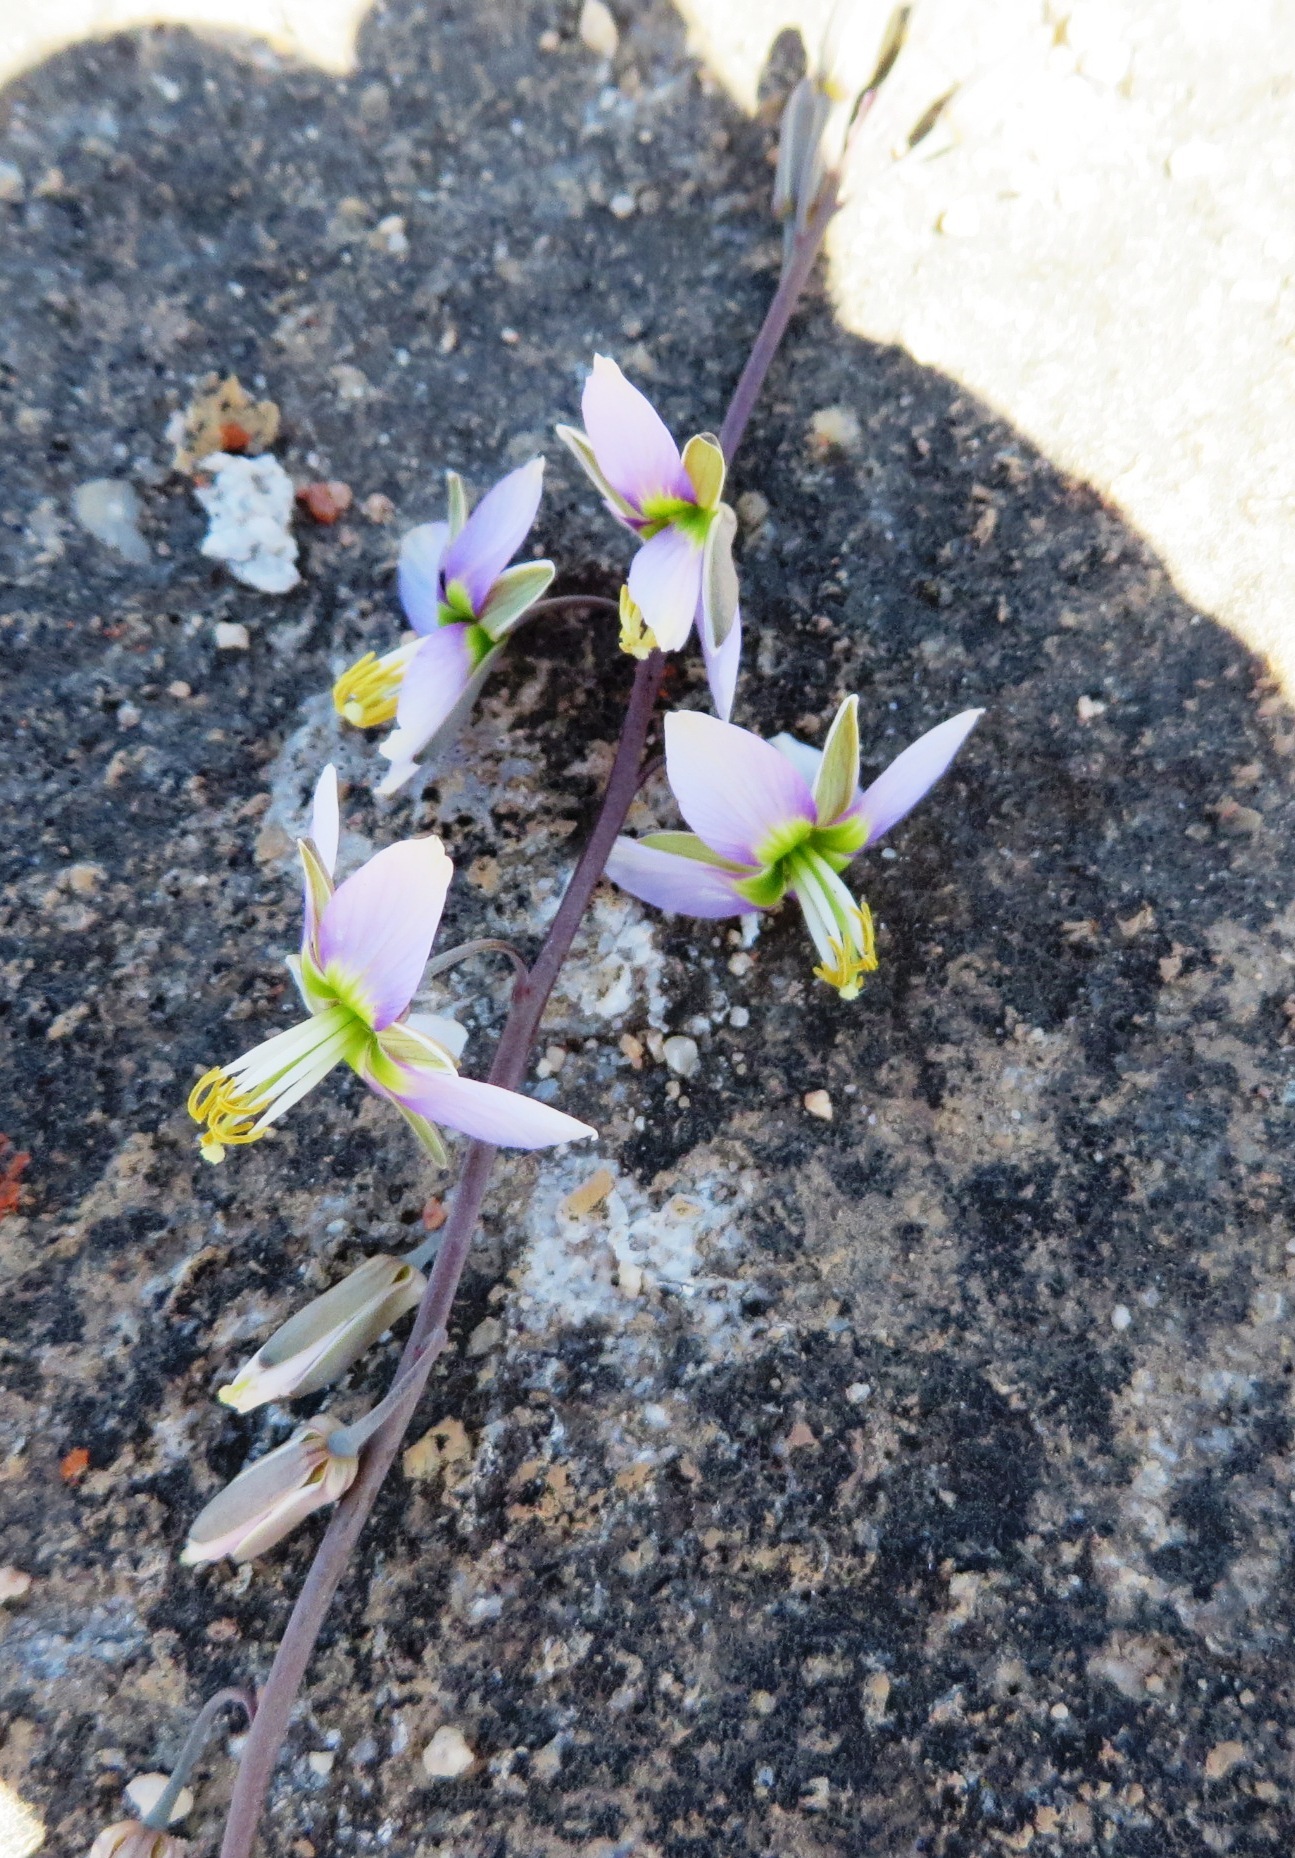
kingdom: Plantae
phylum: Tracheophyta
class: Magnoliopsida
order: Brassicales
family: Brassicaceae
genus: Heliophila
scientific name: Heliophila cornuta
